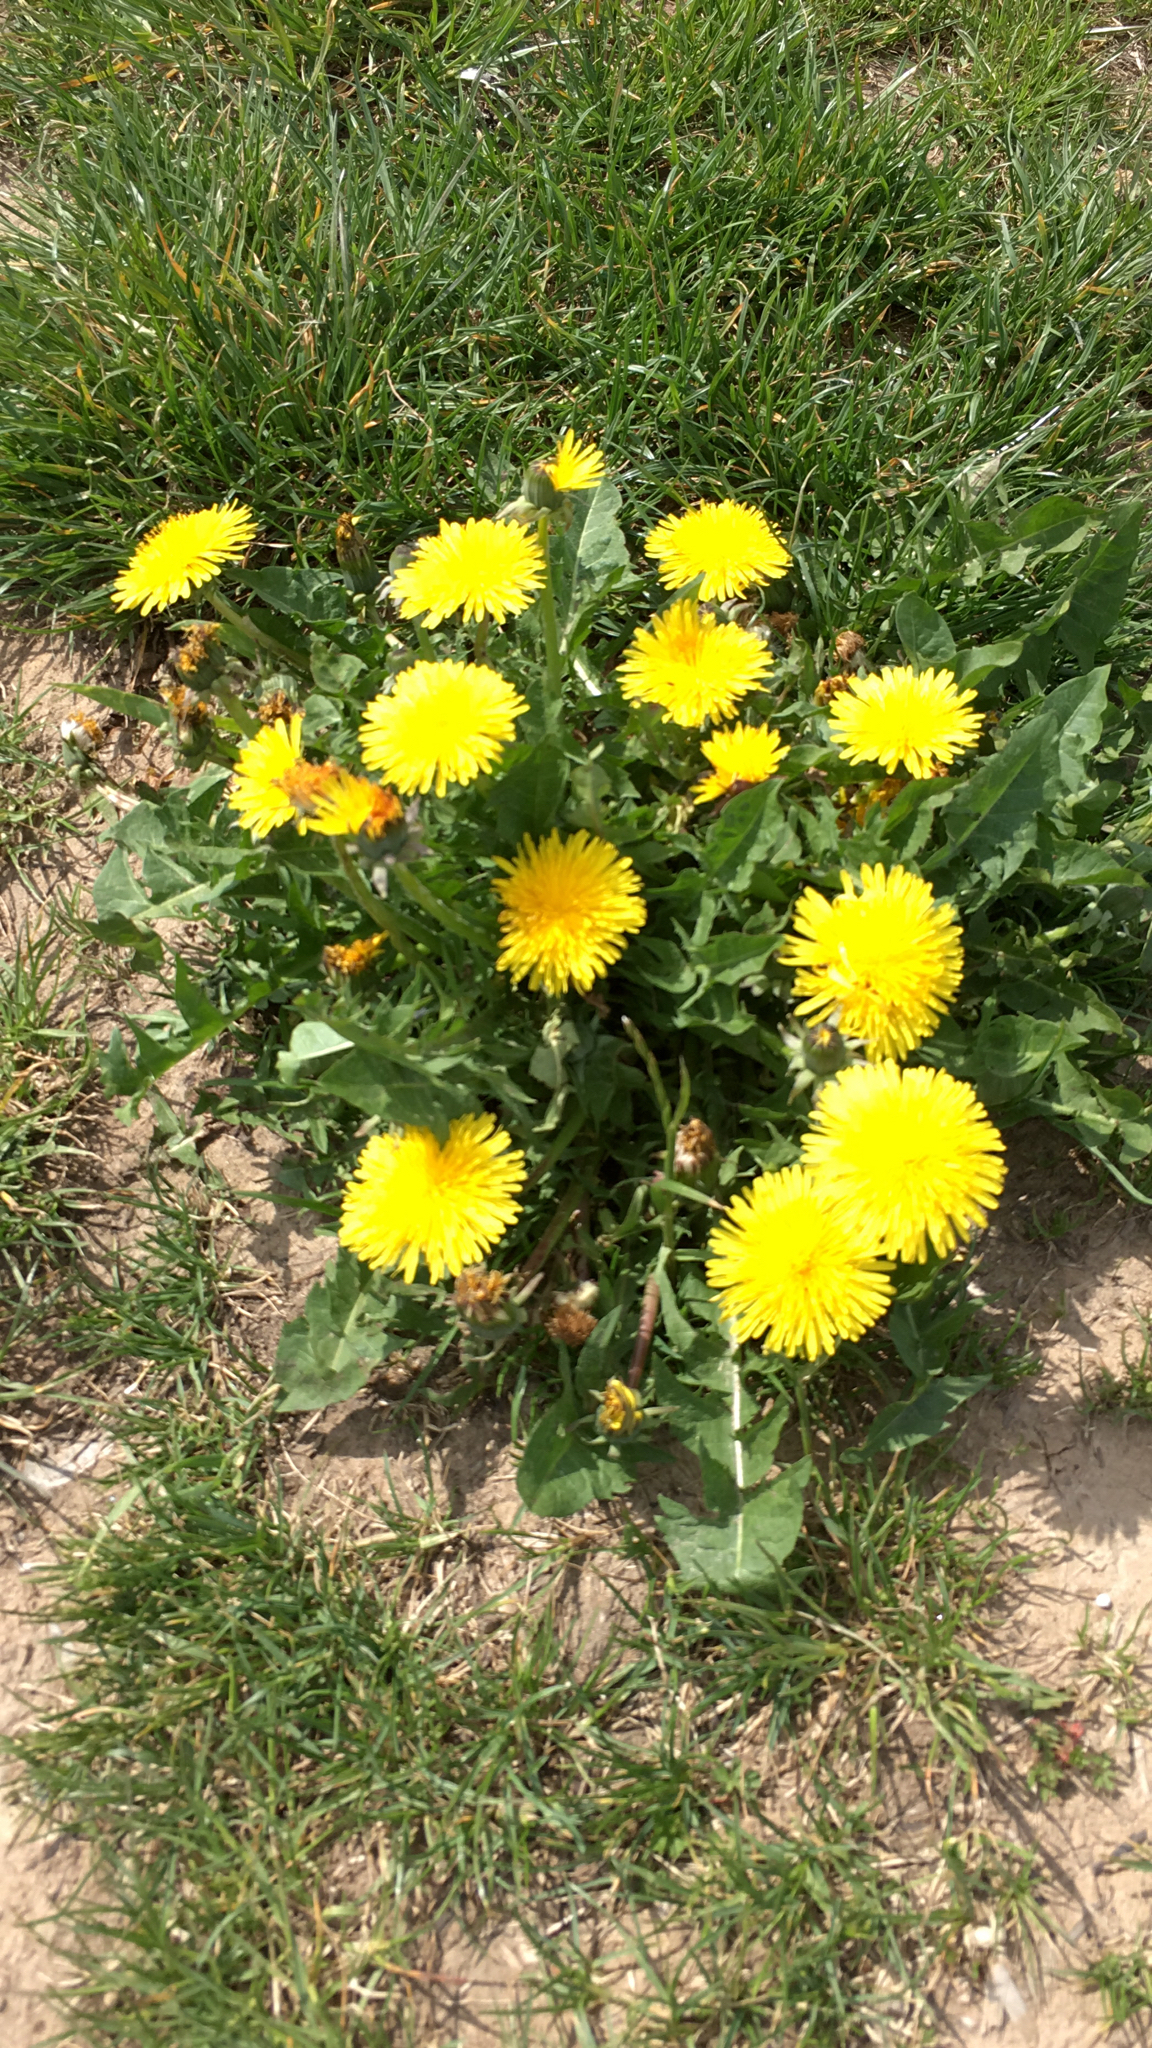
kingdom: Plantae
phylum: Tracheophyta
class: Magnoliopsida
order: Asterales
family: Asteraceae
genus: Taraxacum
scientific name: Taraxacum officinale
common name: Common dandelion
